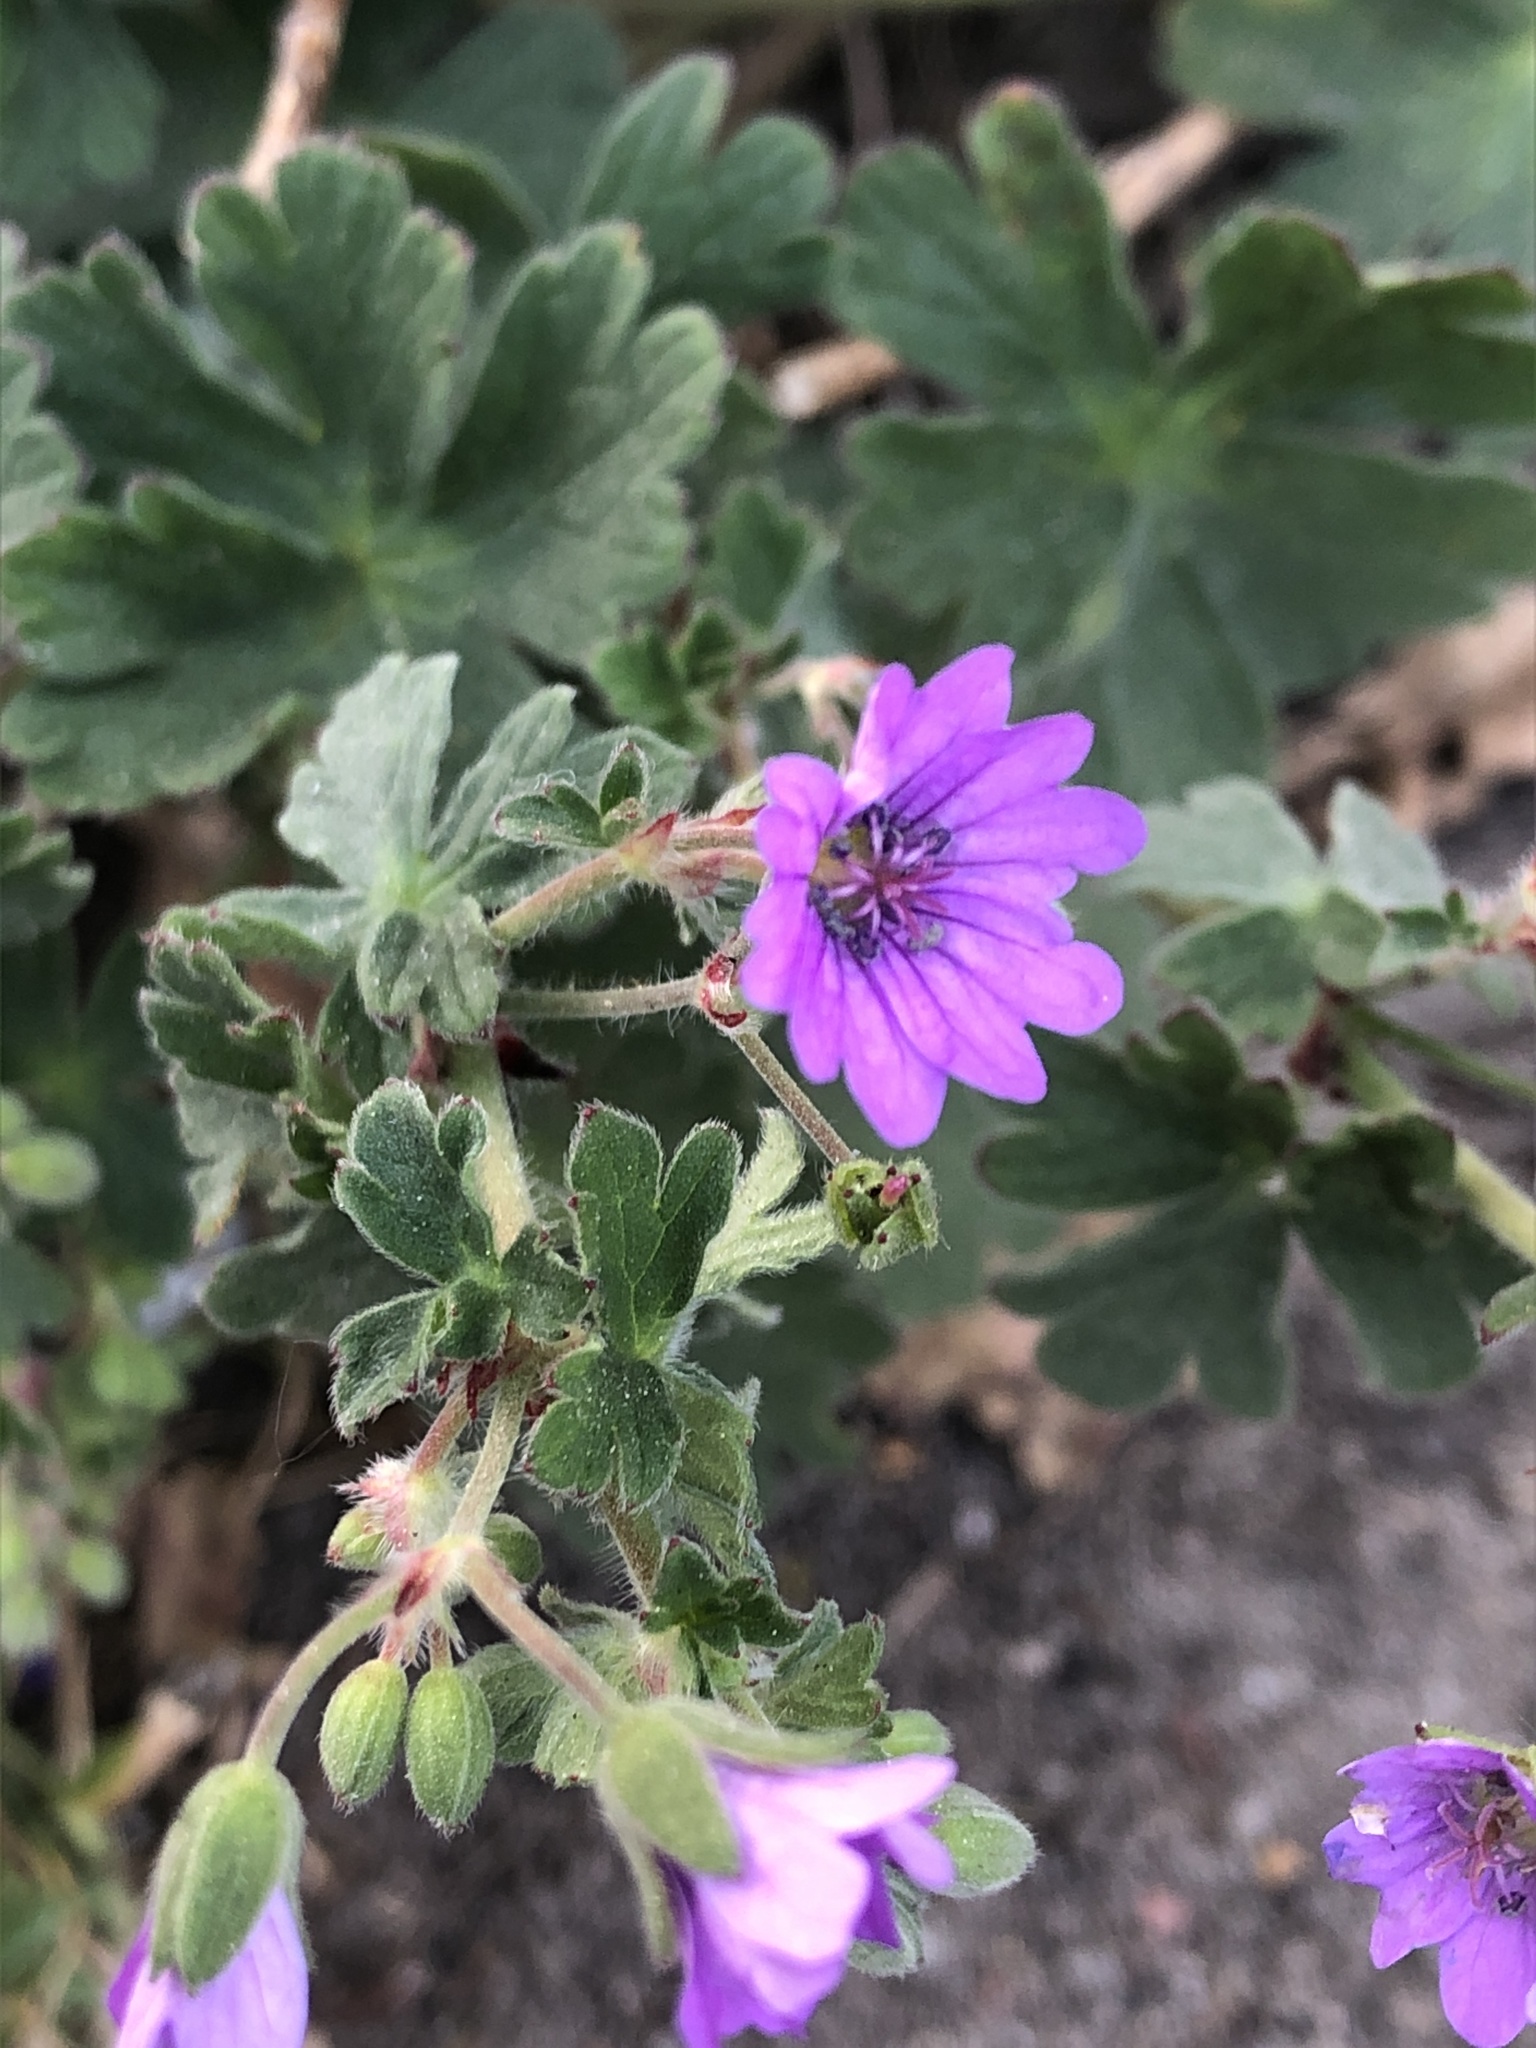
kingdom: Plantae
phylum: Tracheophyta
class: Magnoliopsida
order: Geraniales
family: Geraniaceae
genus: Geranium
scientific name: Geranium molle
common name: Dove's-foot crane's-bill
